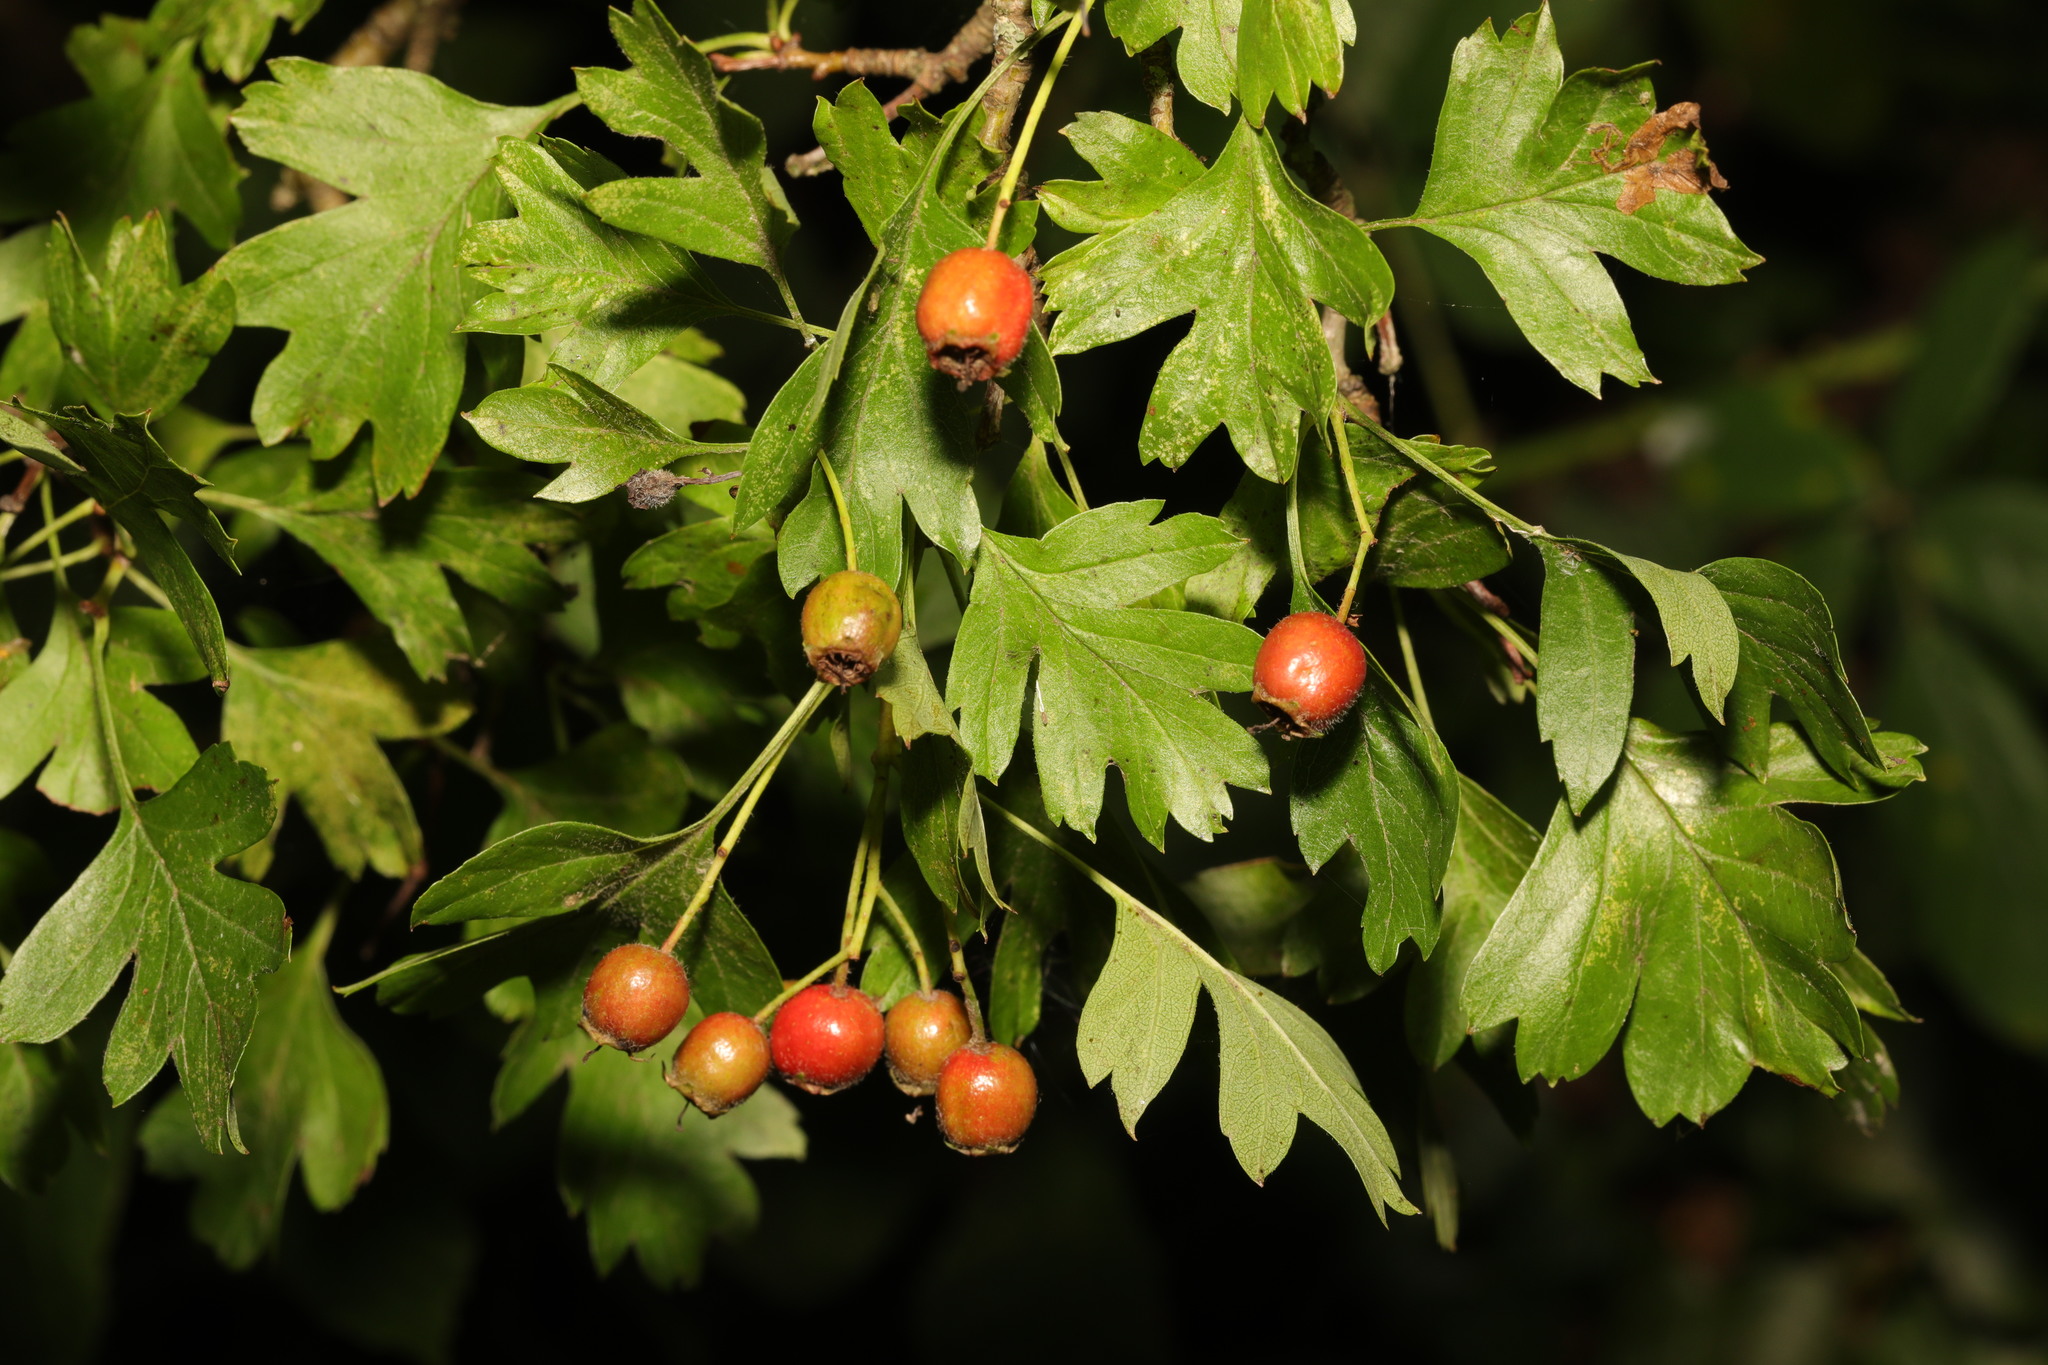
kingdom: Plantae
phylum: Tracheophyta
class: Magnoliopsida
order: Rosales
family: Rosaceae
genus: Crataegus
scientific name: Crataegus monogyna
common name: Hawthorn
